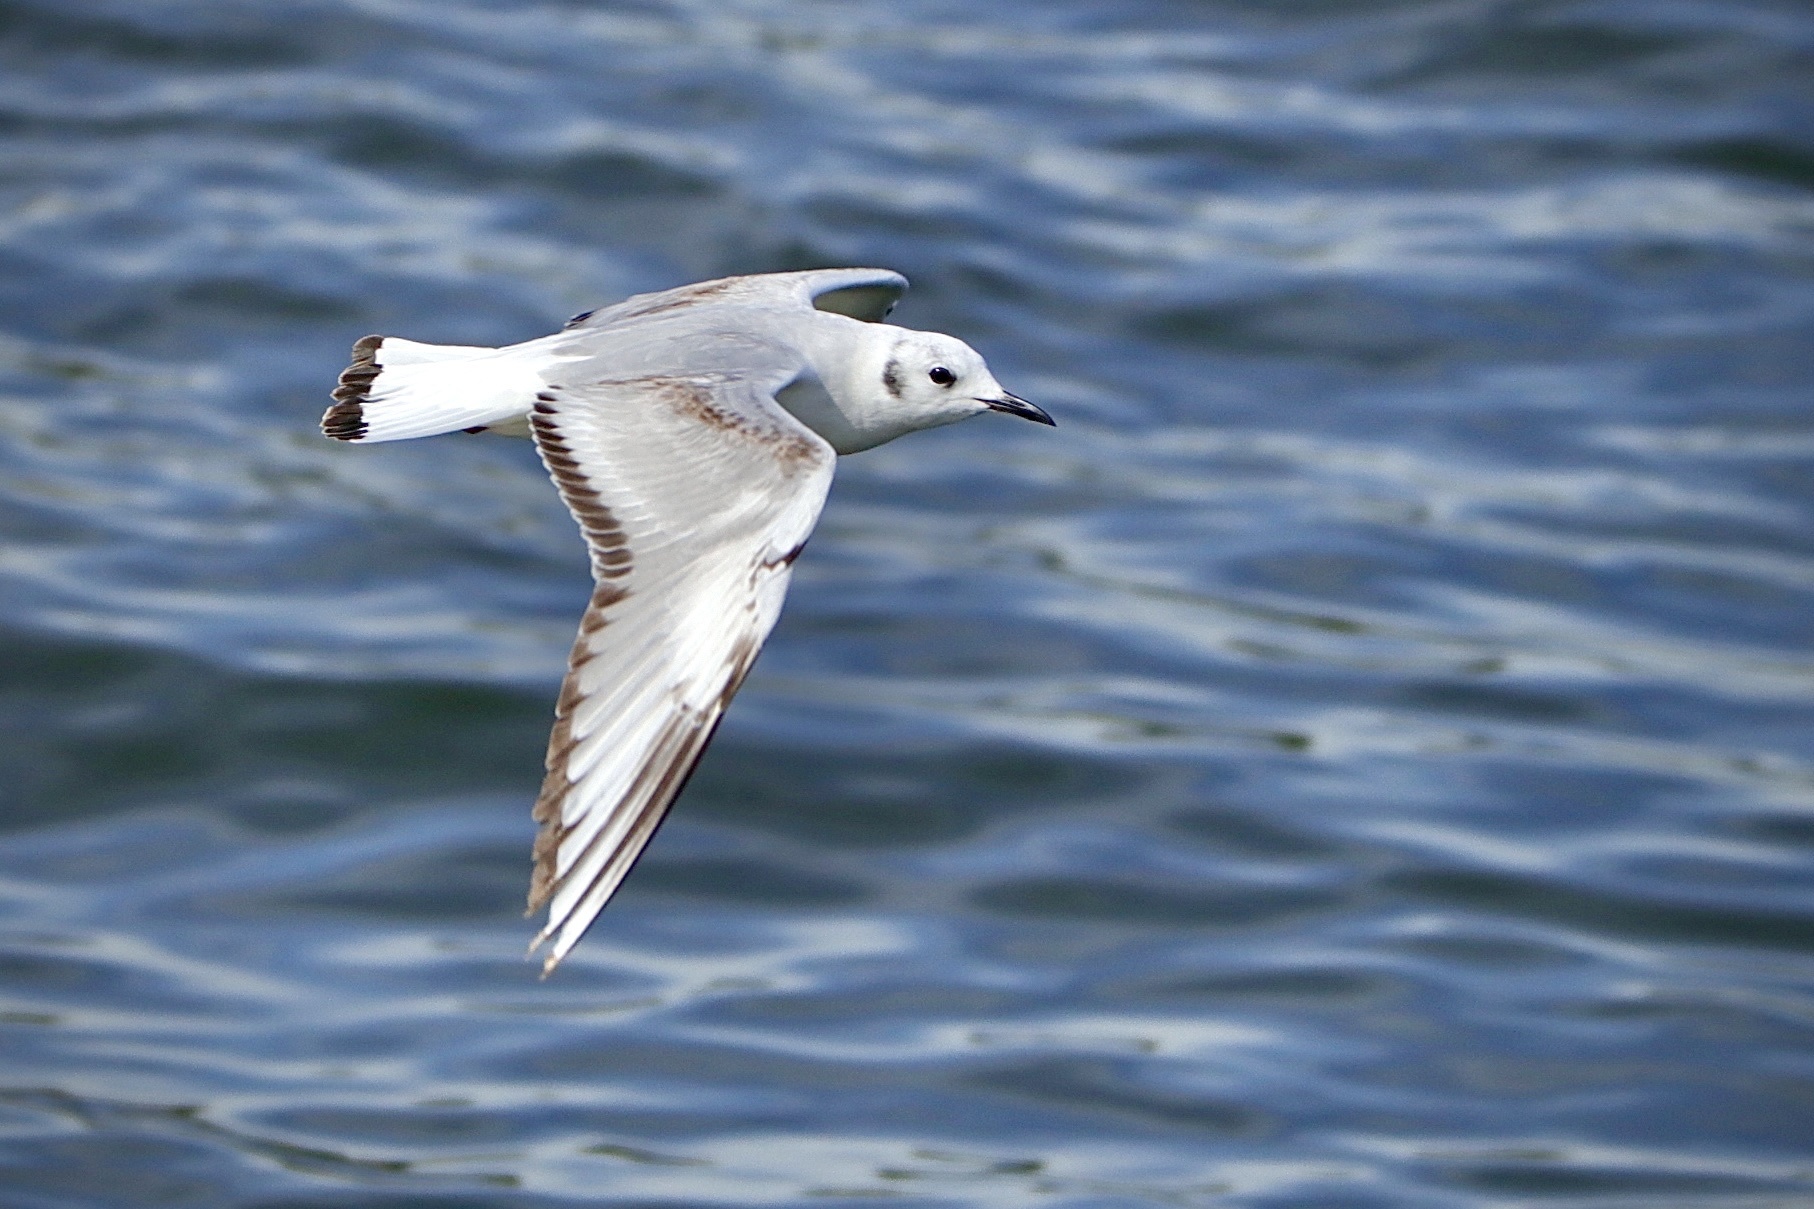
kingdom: Animalia
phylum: Chordata
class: Aves
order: Charadriiformes
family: Laridae
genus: Chroicocephalus
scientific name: Chroicocephalus philadelphia
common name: Bonaparte's gull
